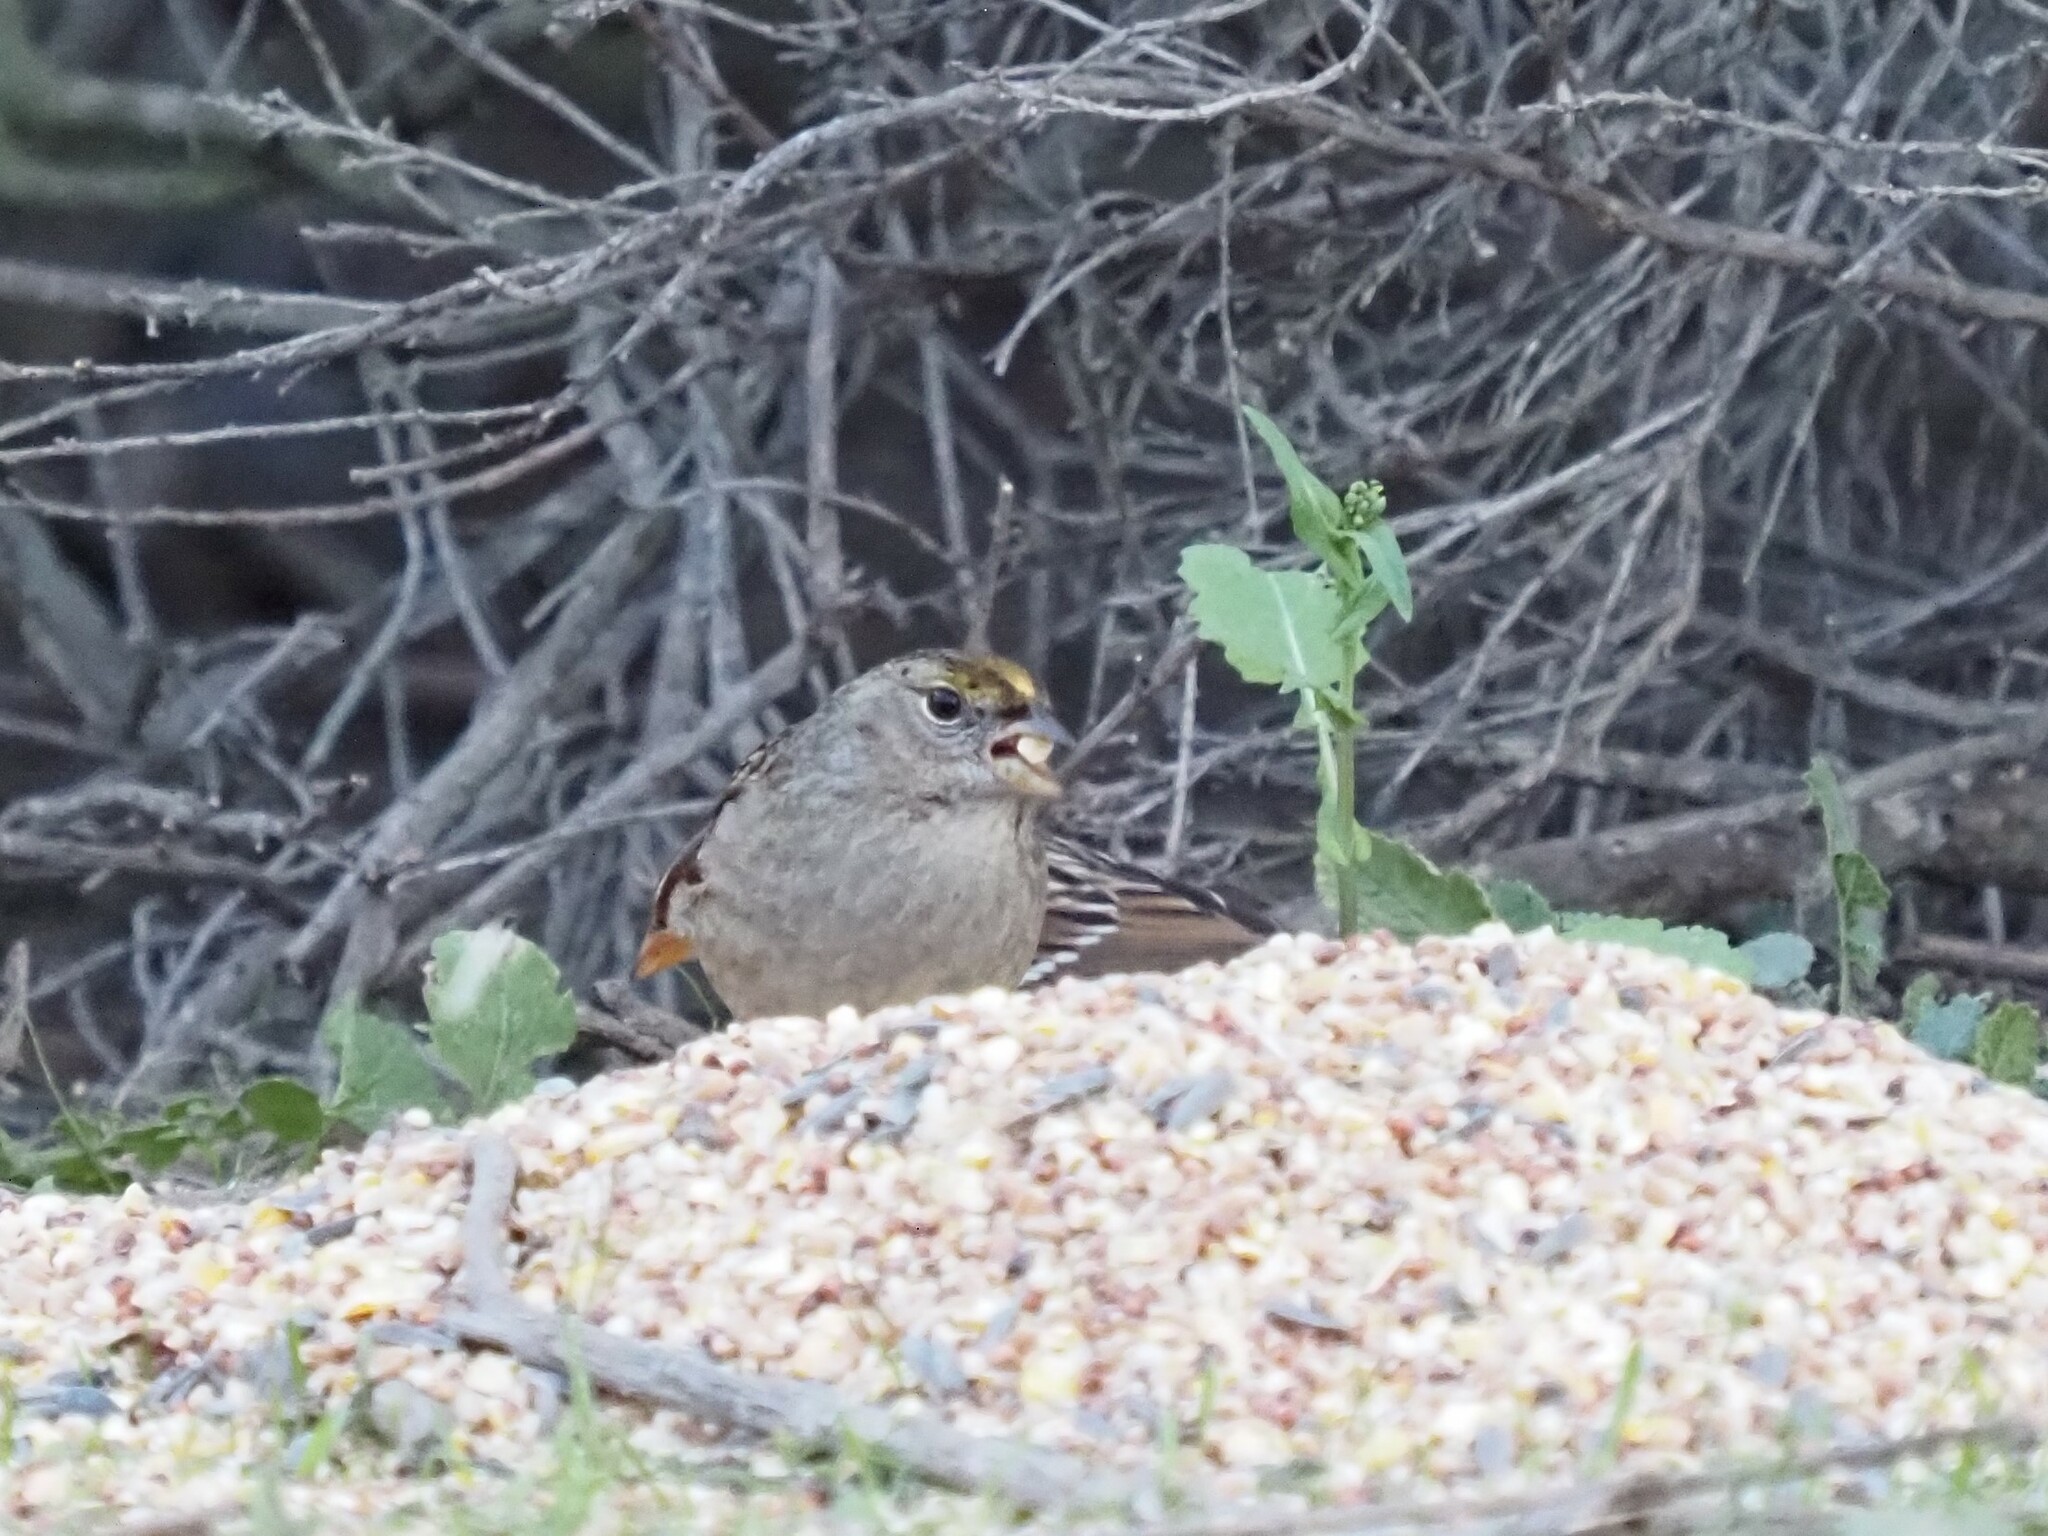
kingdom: Animalia
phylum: Chordata
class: Aves
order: Passeriformes
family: Passerellidae
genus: Zonotrichia
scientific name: Zonotrichia atricapilla
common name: Golden-crowned sparrow
